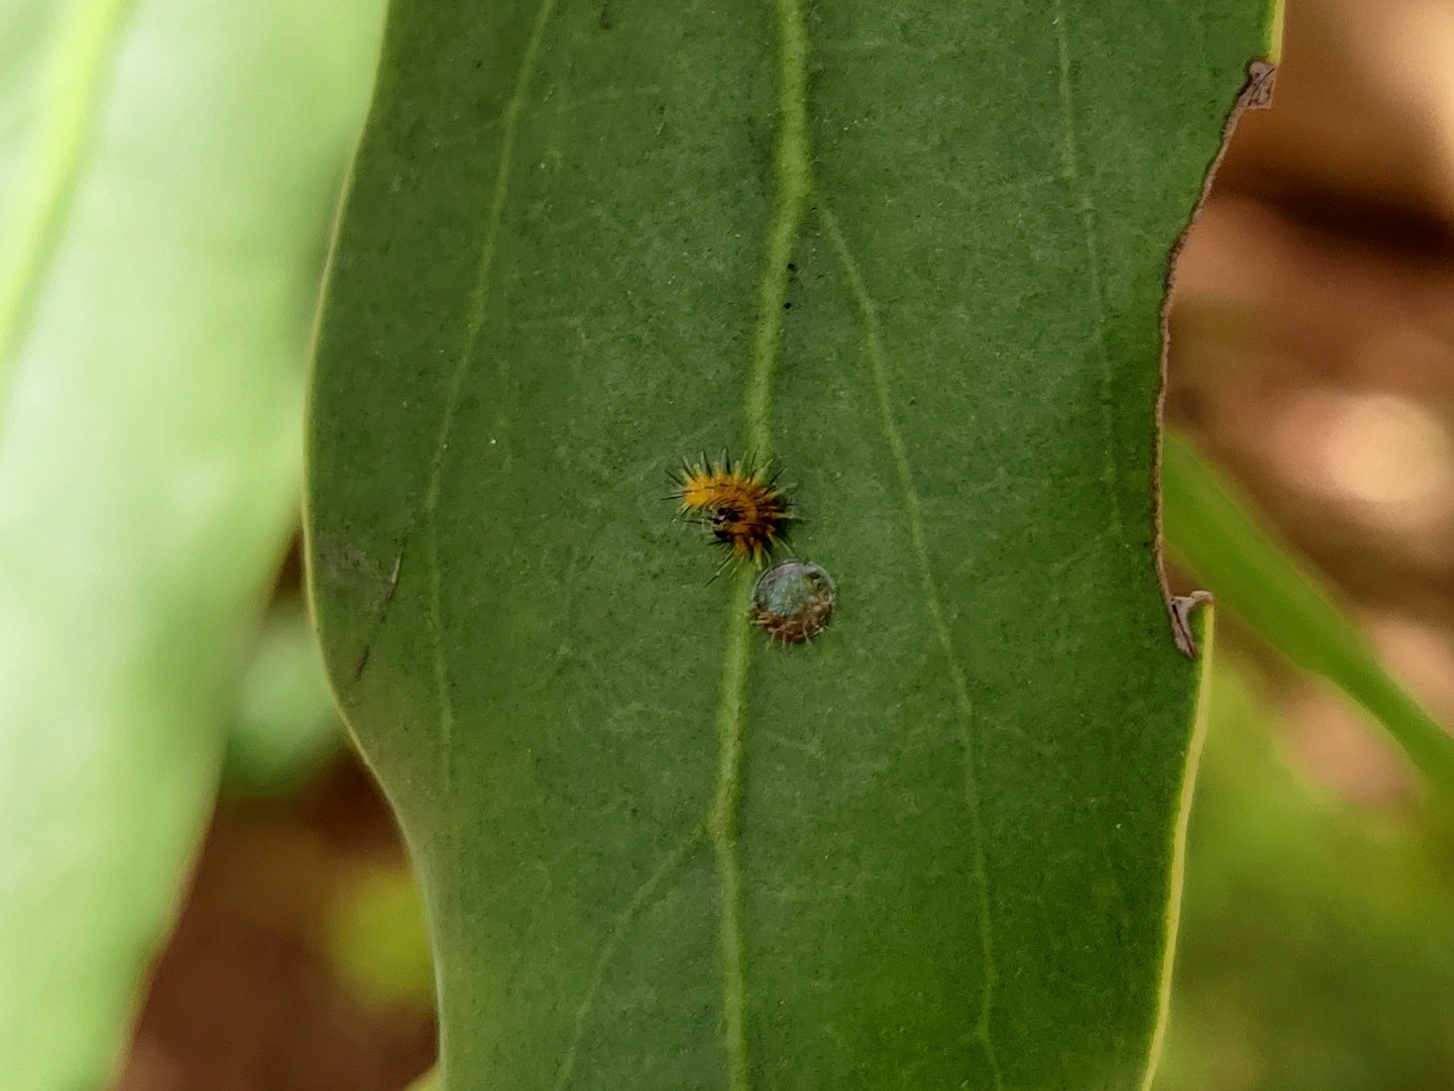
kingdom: Animalia
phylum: Arthropoda
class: Insecta
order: Lepidoptera
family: Nymphalidae
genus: Euthalia
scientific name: Euthalia lubentina
